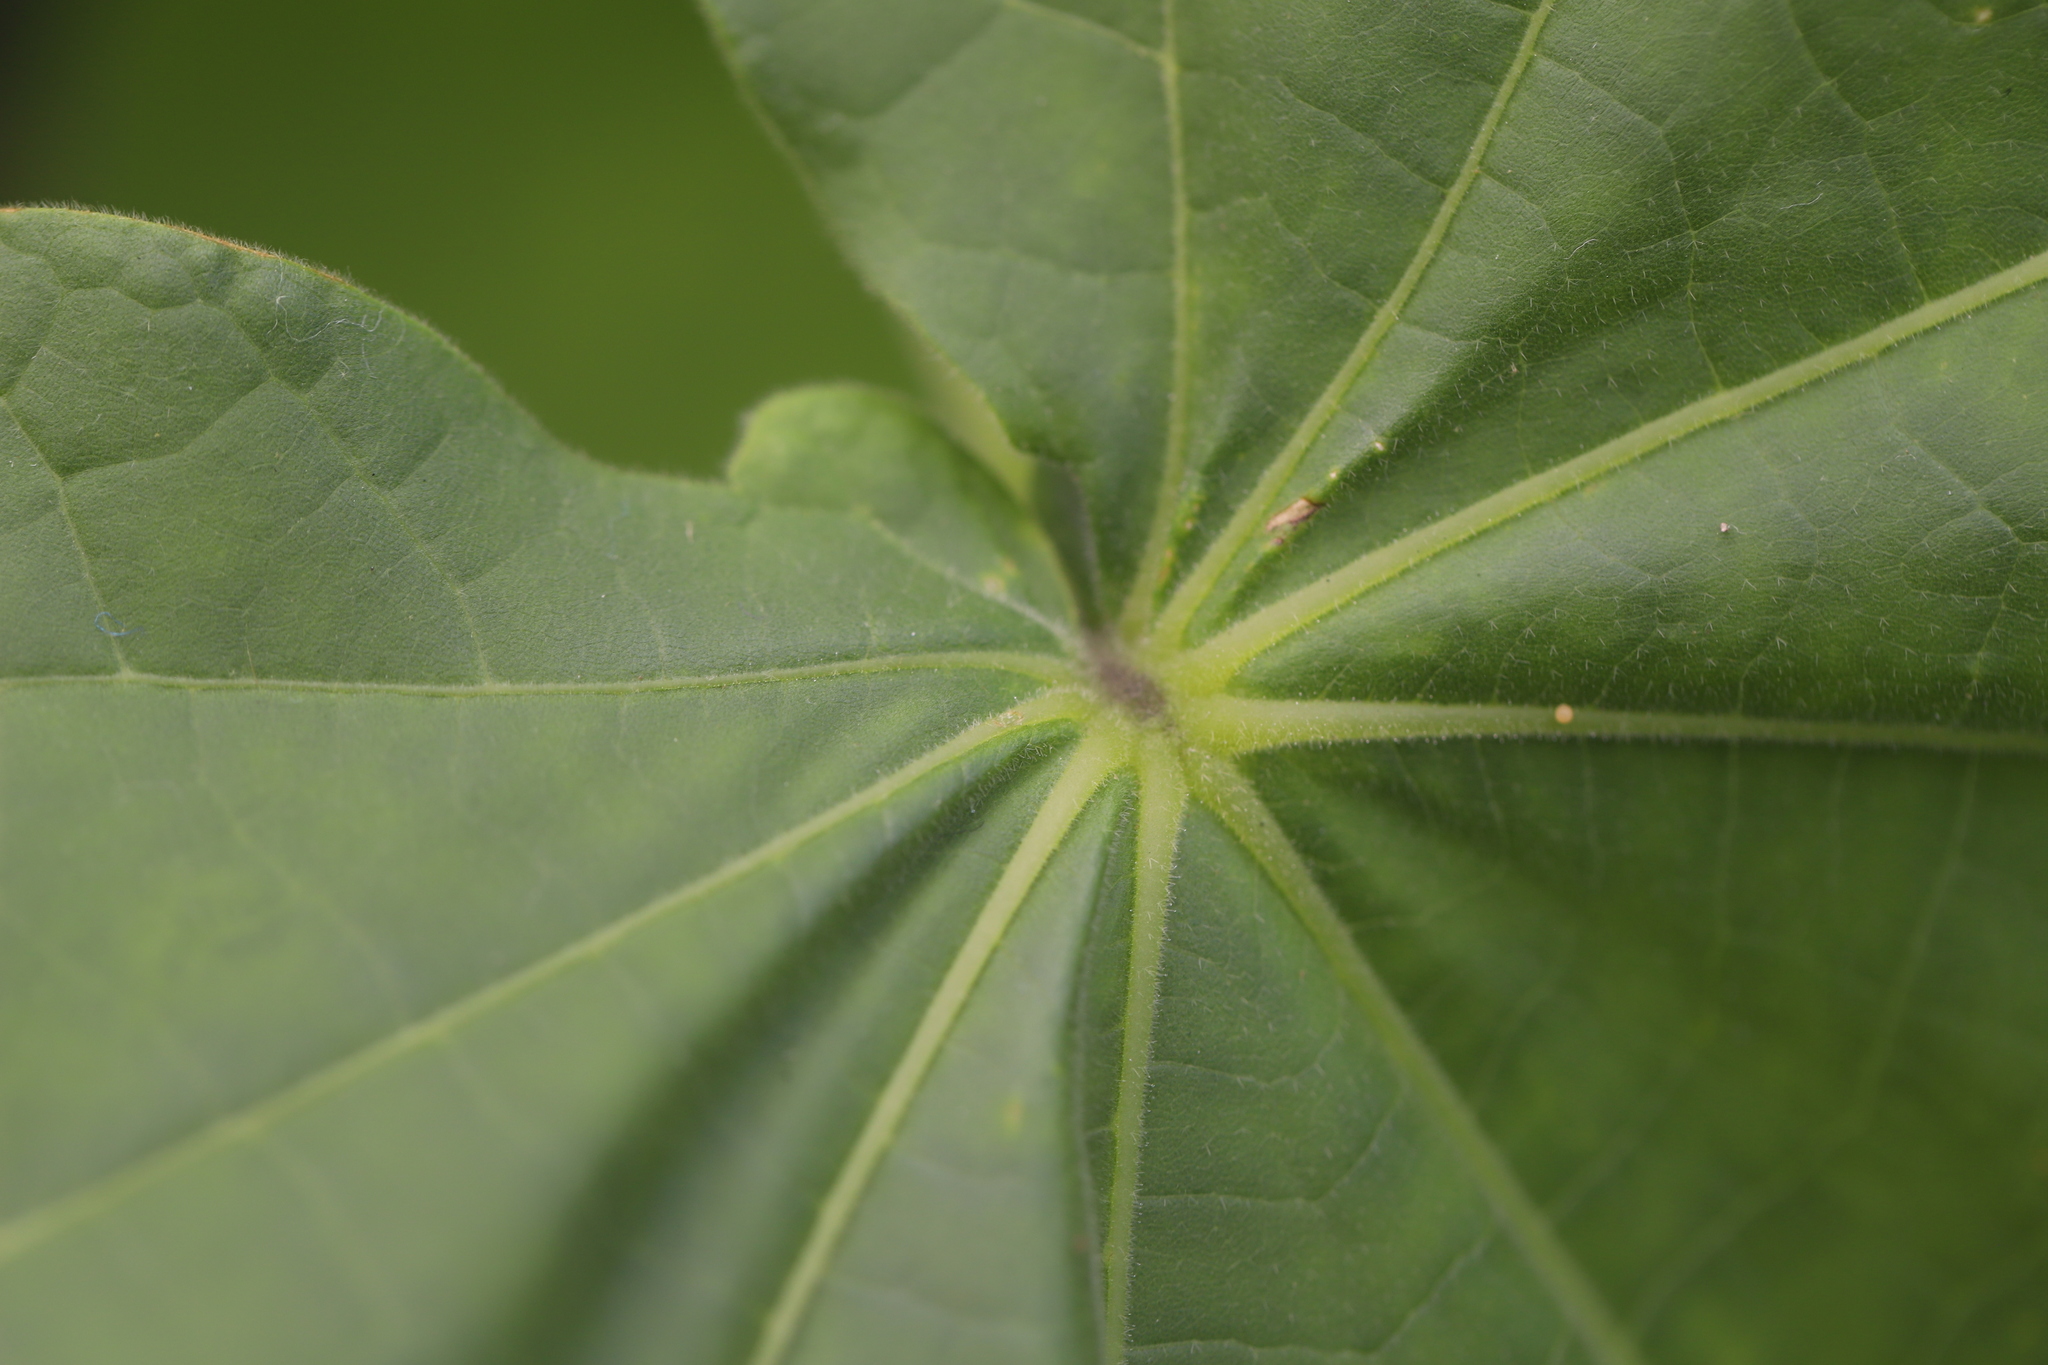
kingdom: Plantae
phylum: Tracheophyta
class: Magnoliopsida
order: Malvales
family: Malvaceae
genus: Abutilon
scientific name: Abutilon theophrasti
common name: Velvetleaf
